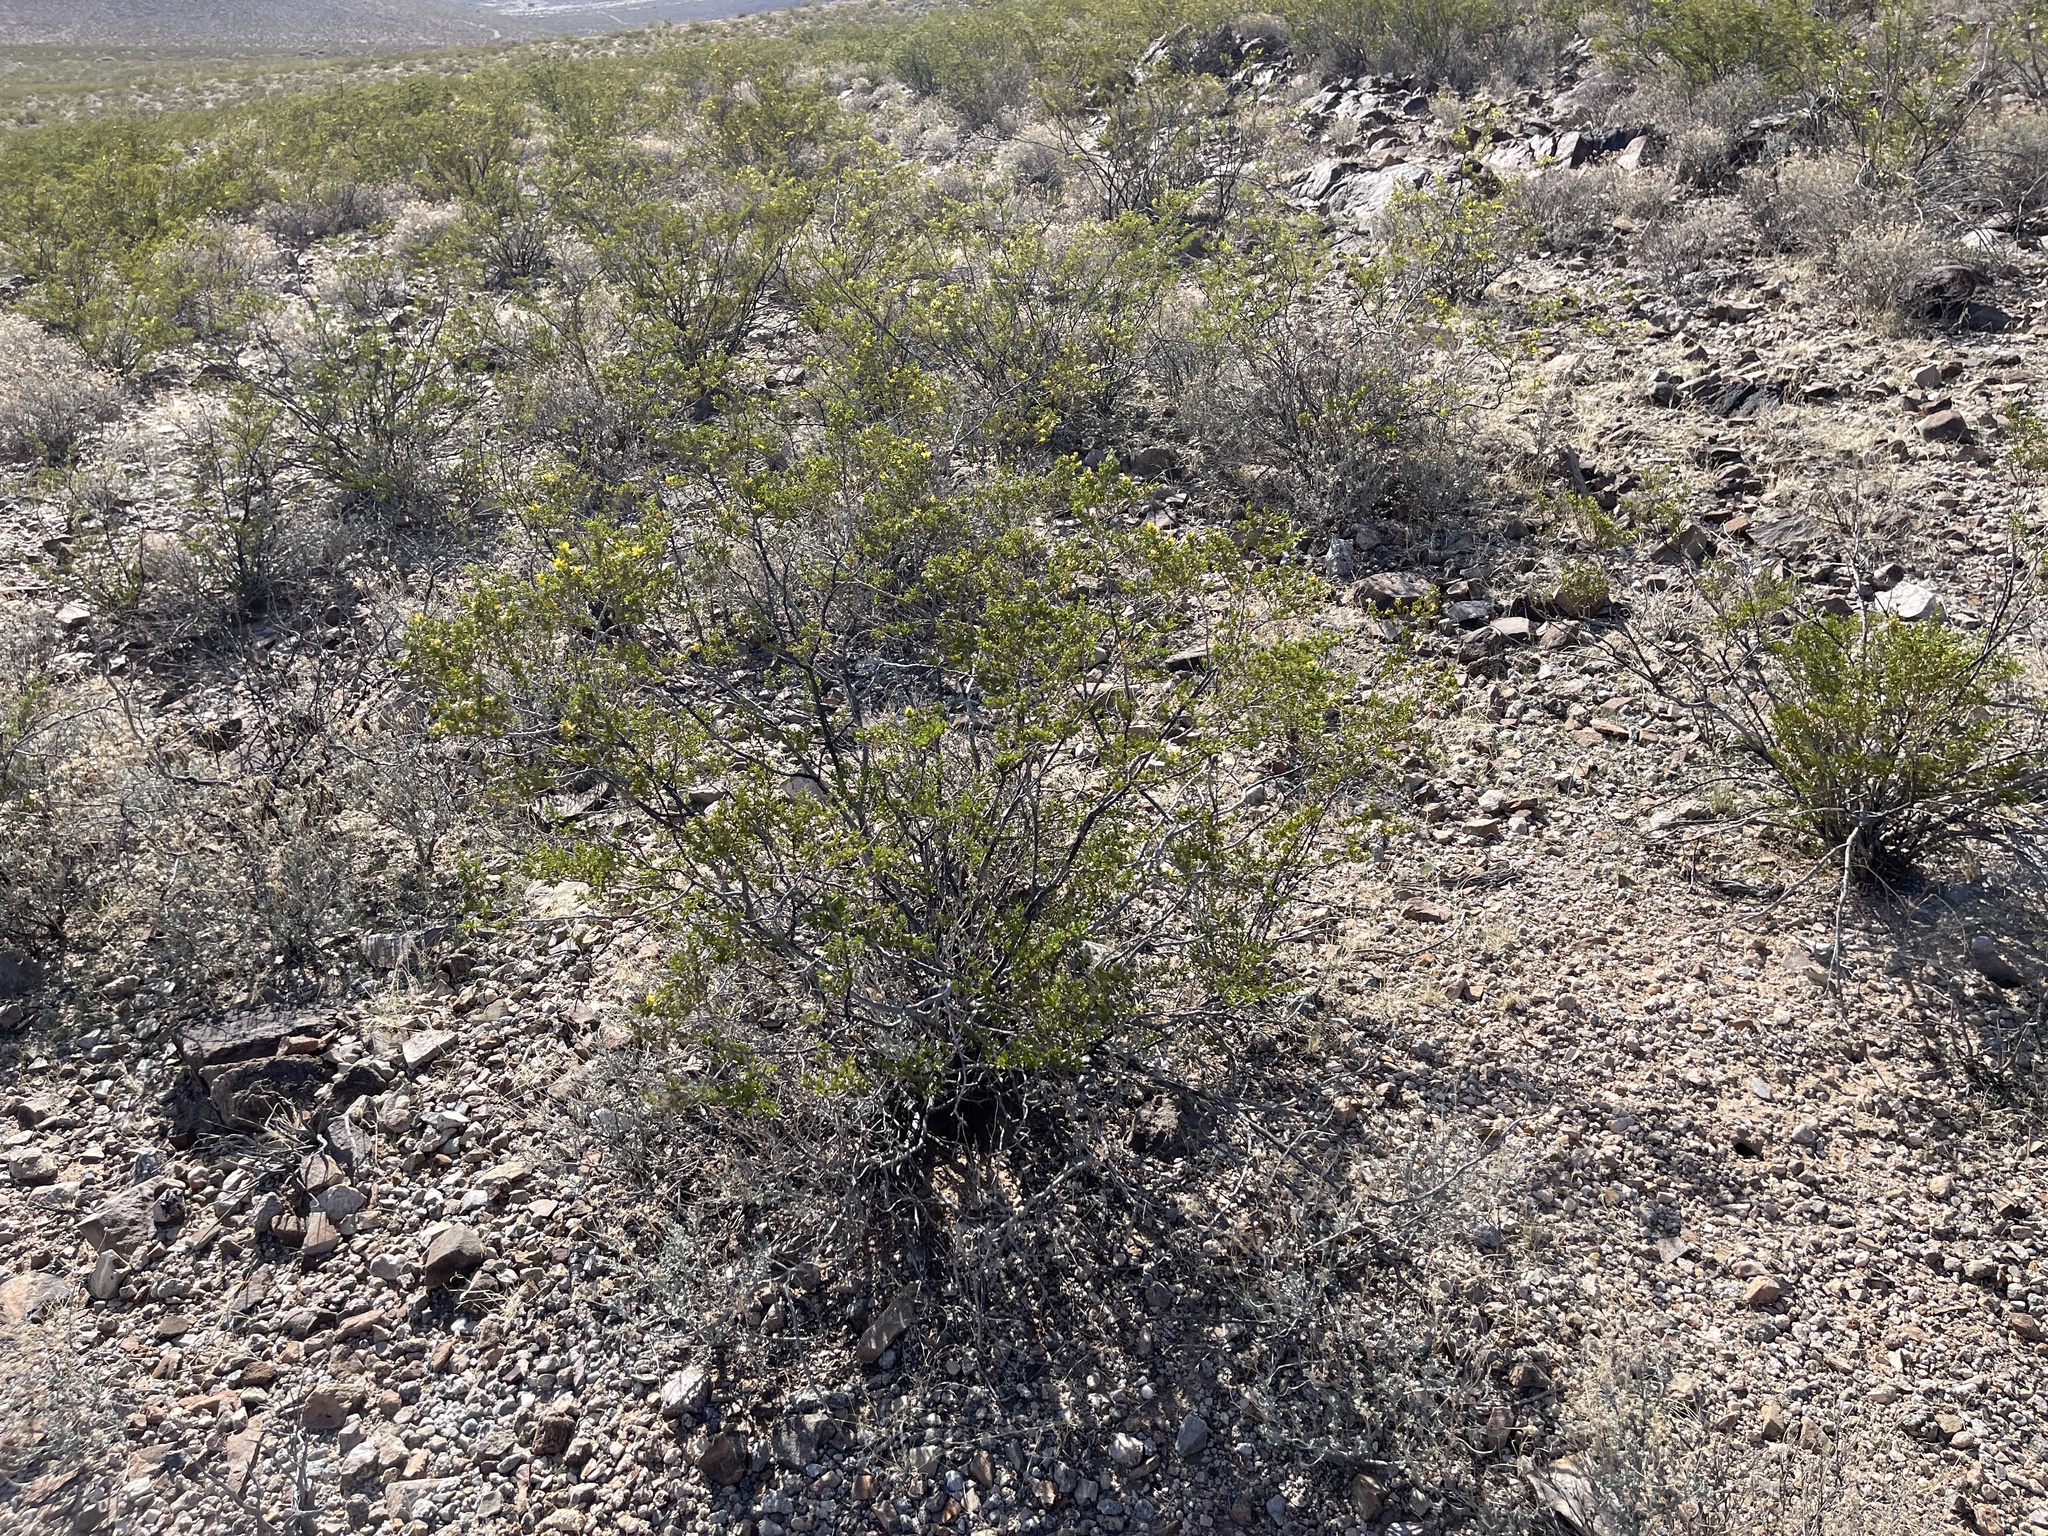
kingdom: Plantae
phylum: Tracheophyta
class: Magnoliopsida
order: Zygophyllales
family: Zygophyllaceae
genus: Larrea
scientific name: Larrea tridentata
